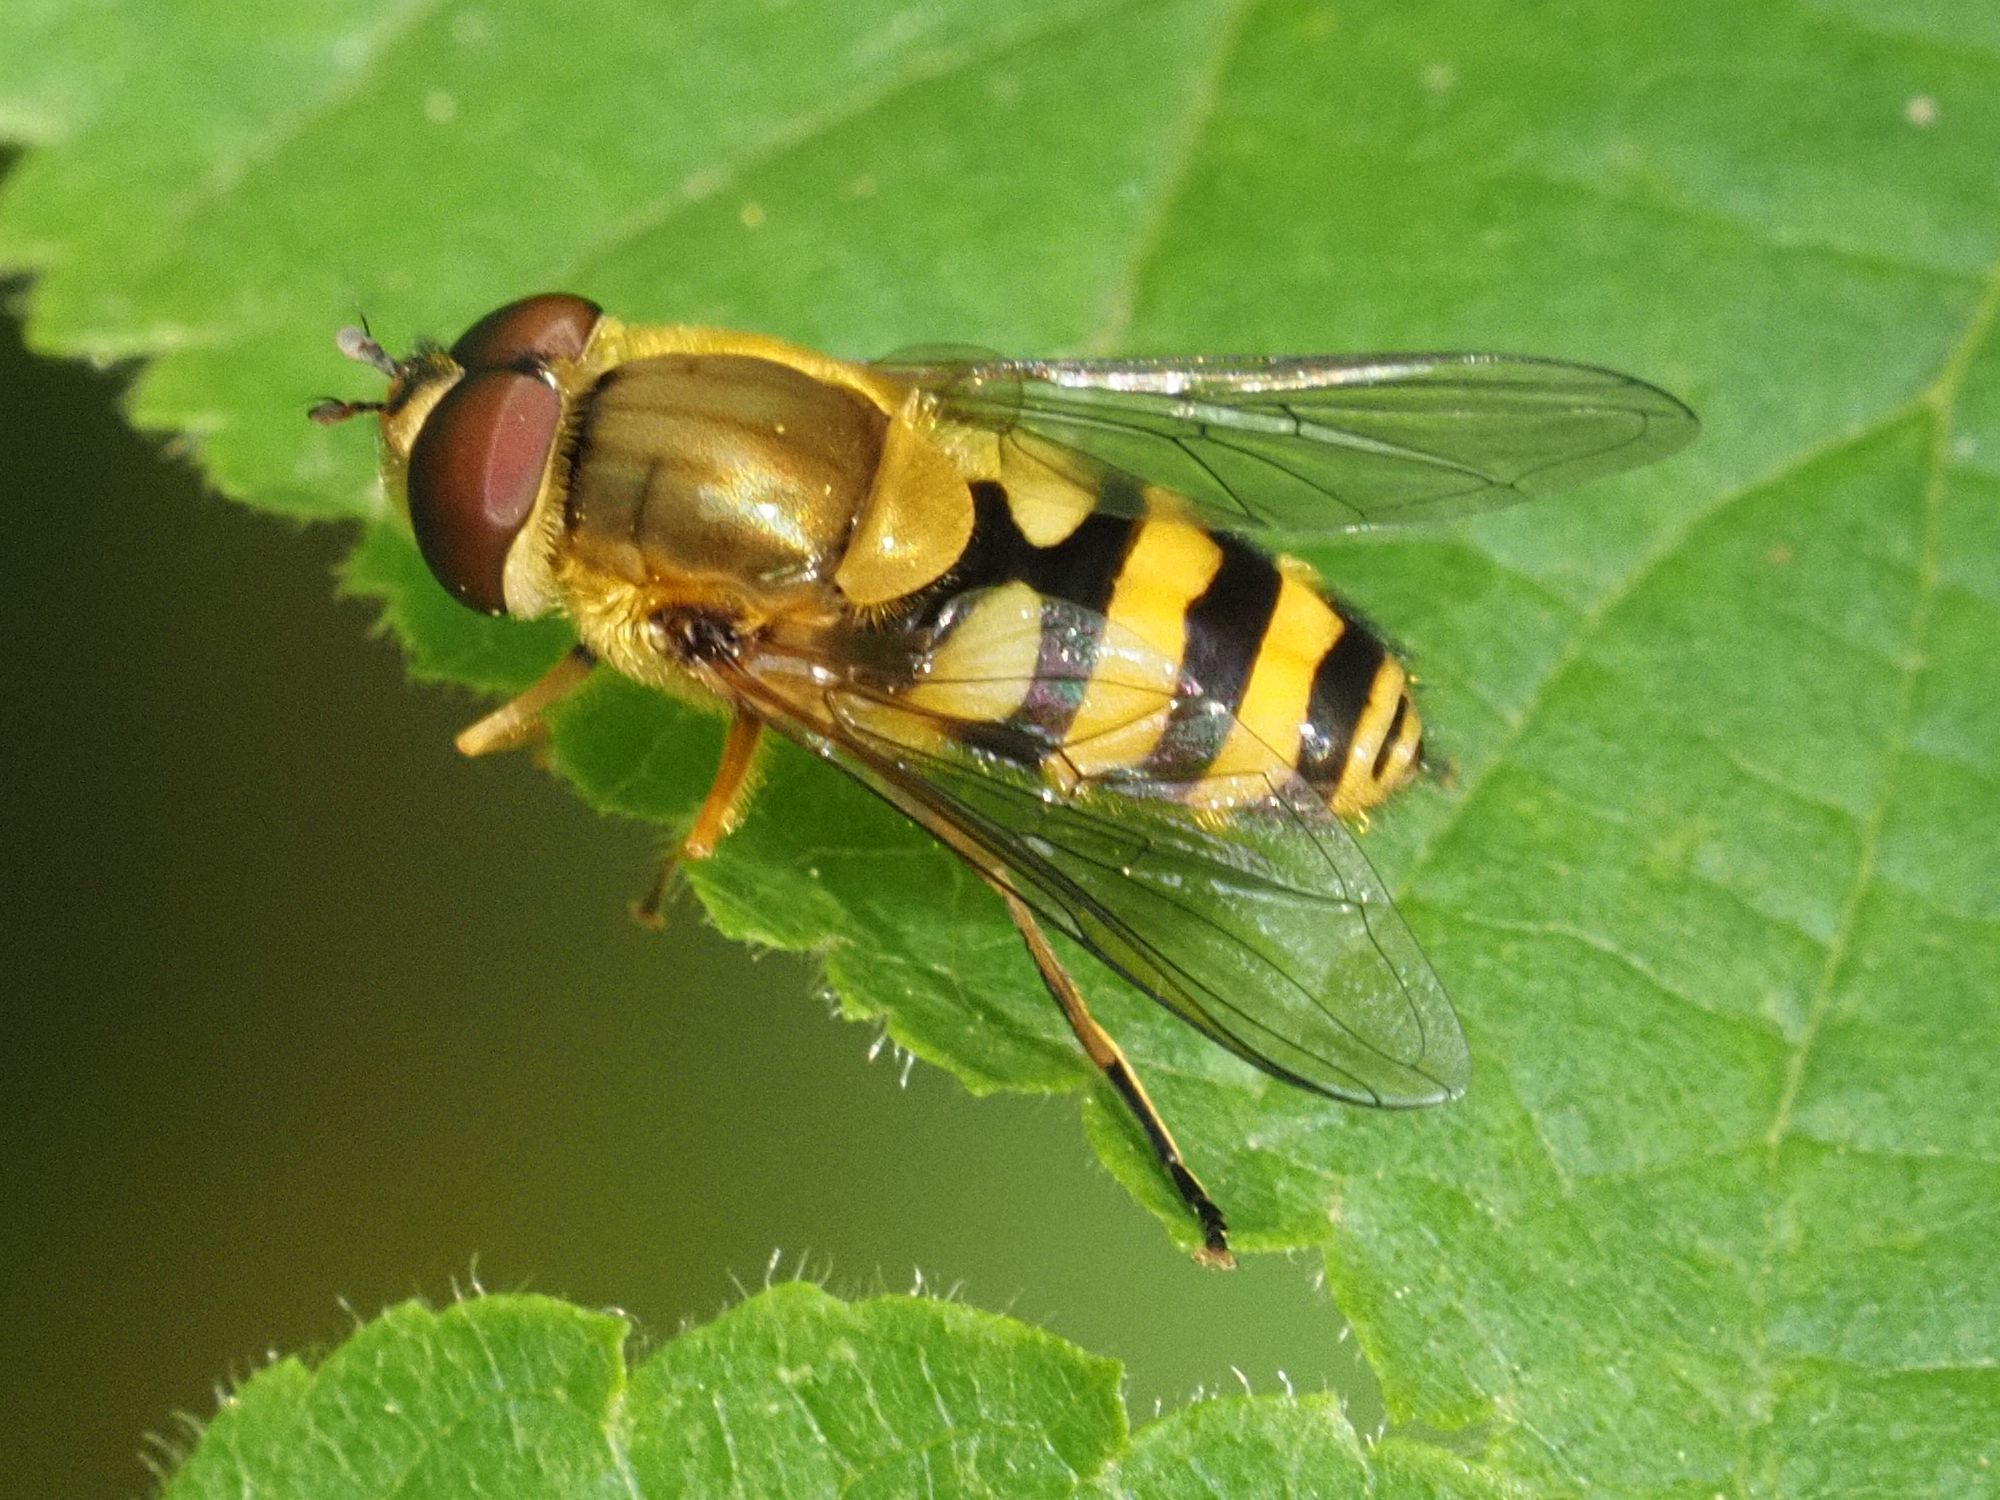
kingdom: Animalia
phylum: Arthropoda
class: Insecta
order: Diptera
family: Syrphidae
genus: Syrphus
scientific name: Syrphus
